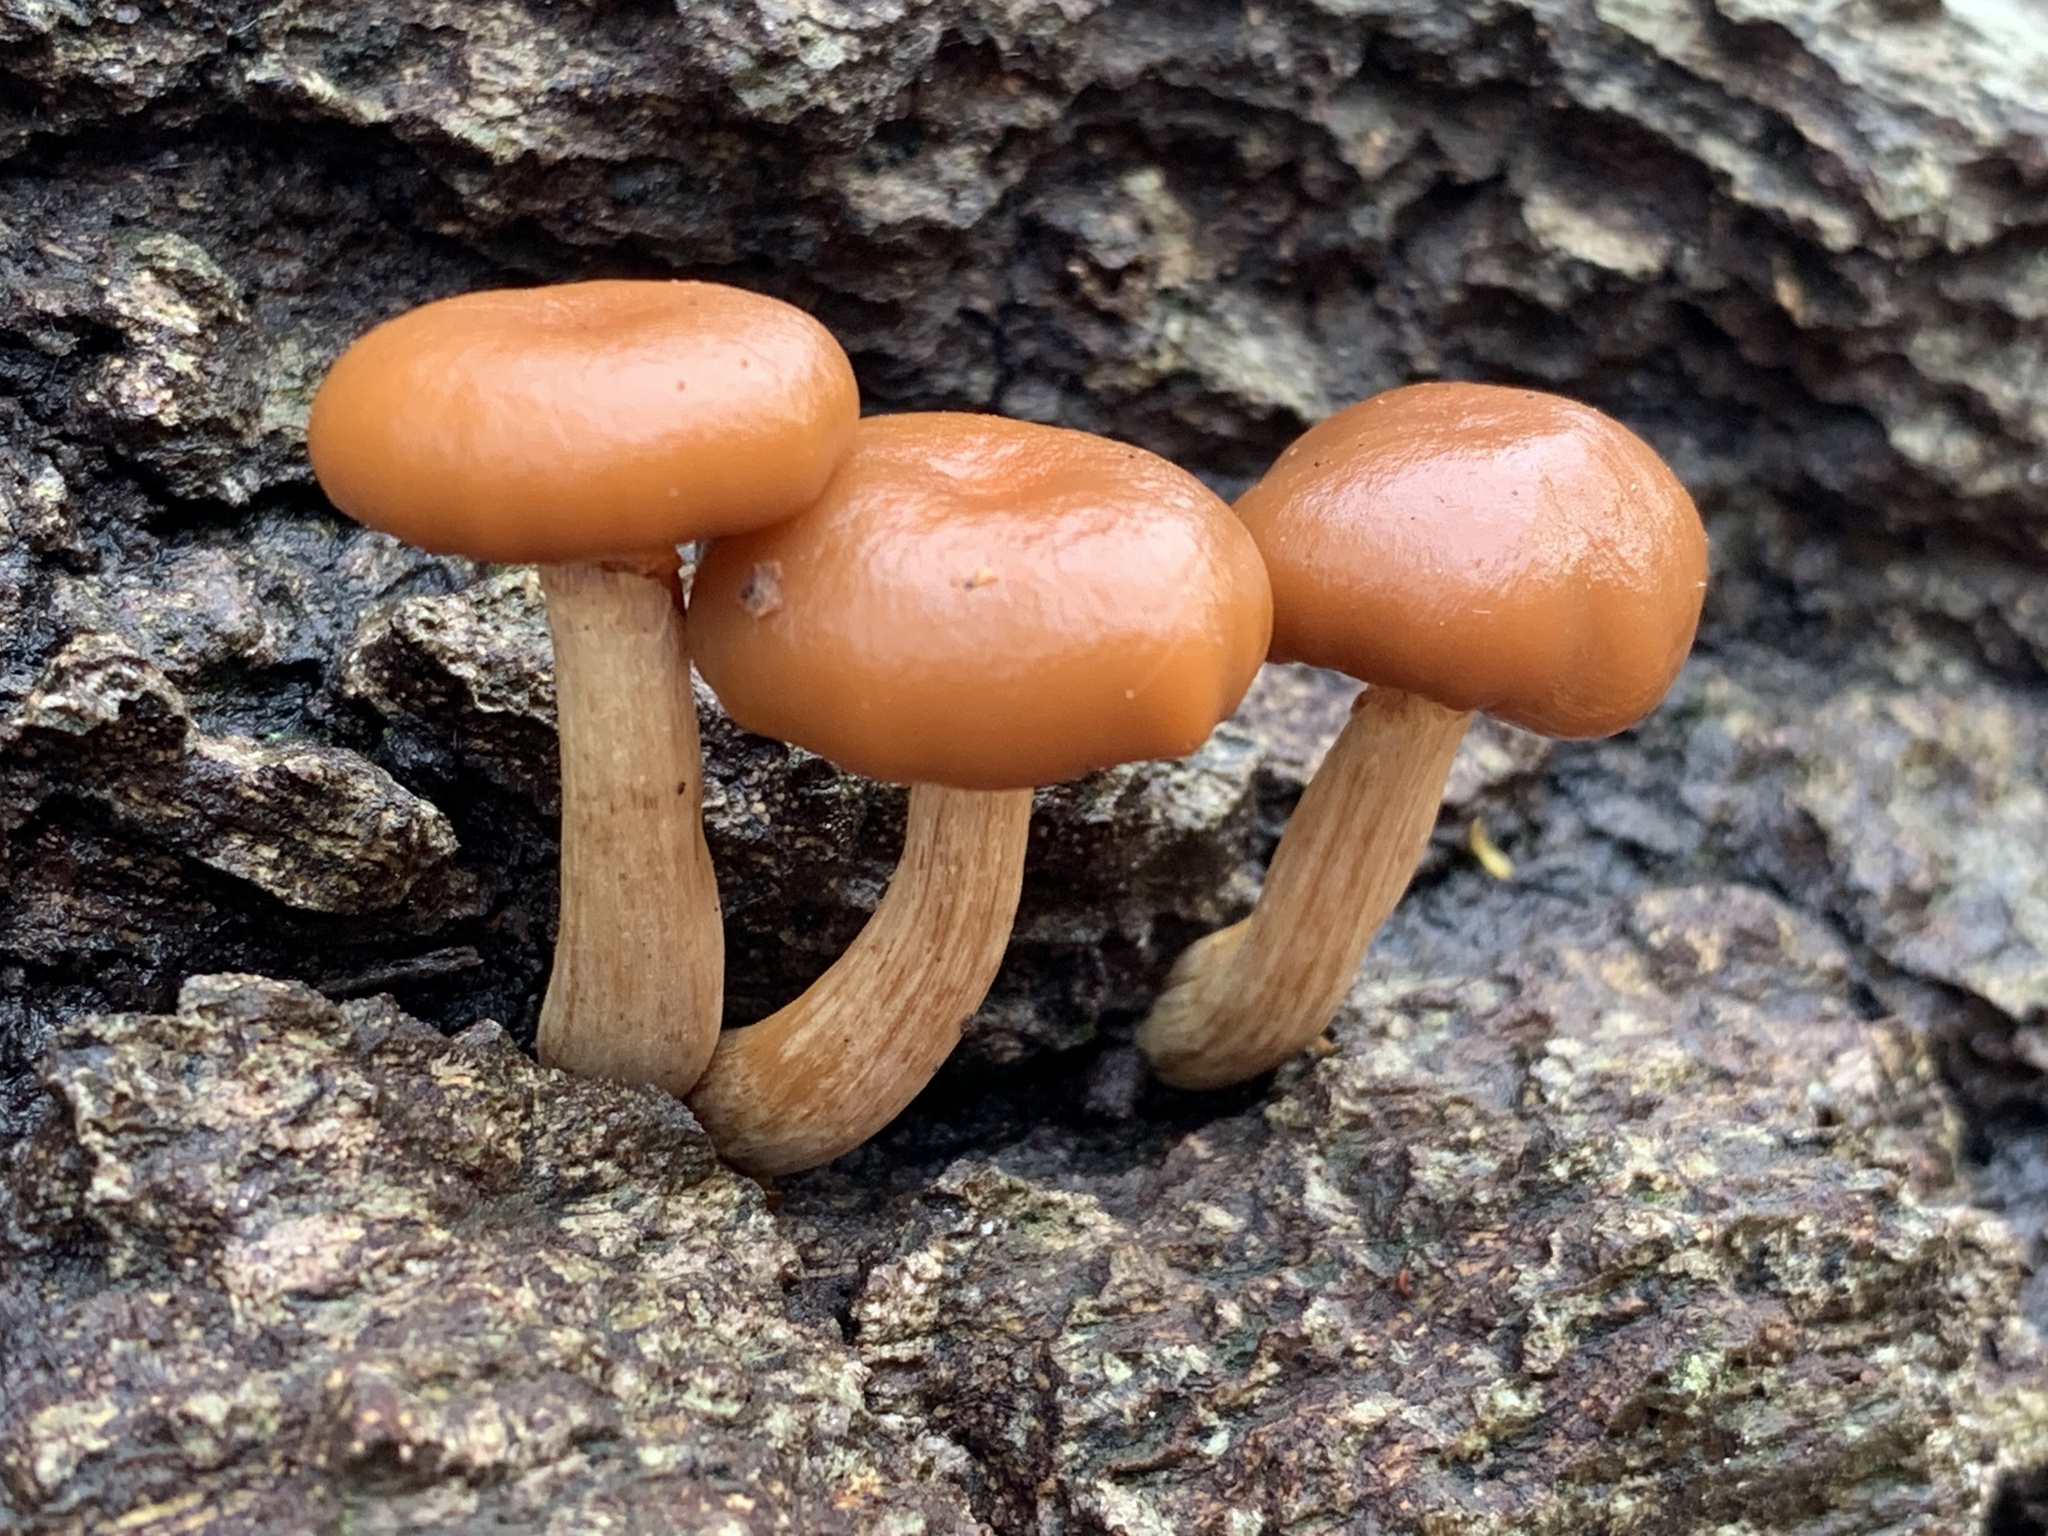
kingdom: Fungi
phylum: Basidiomycota
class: Agaricomycetes
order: Agaricales
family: Hymenogastraceae
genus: Galerina
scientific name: Galerina marginata
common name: Funeral bell
